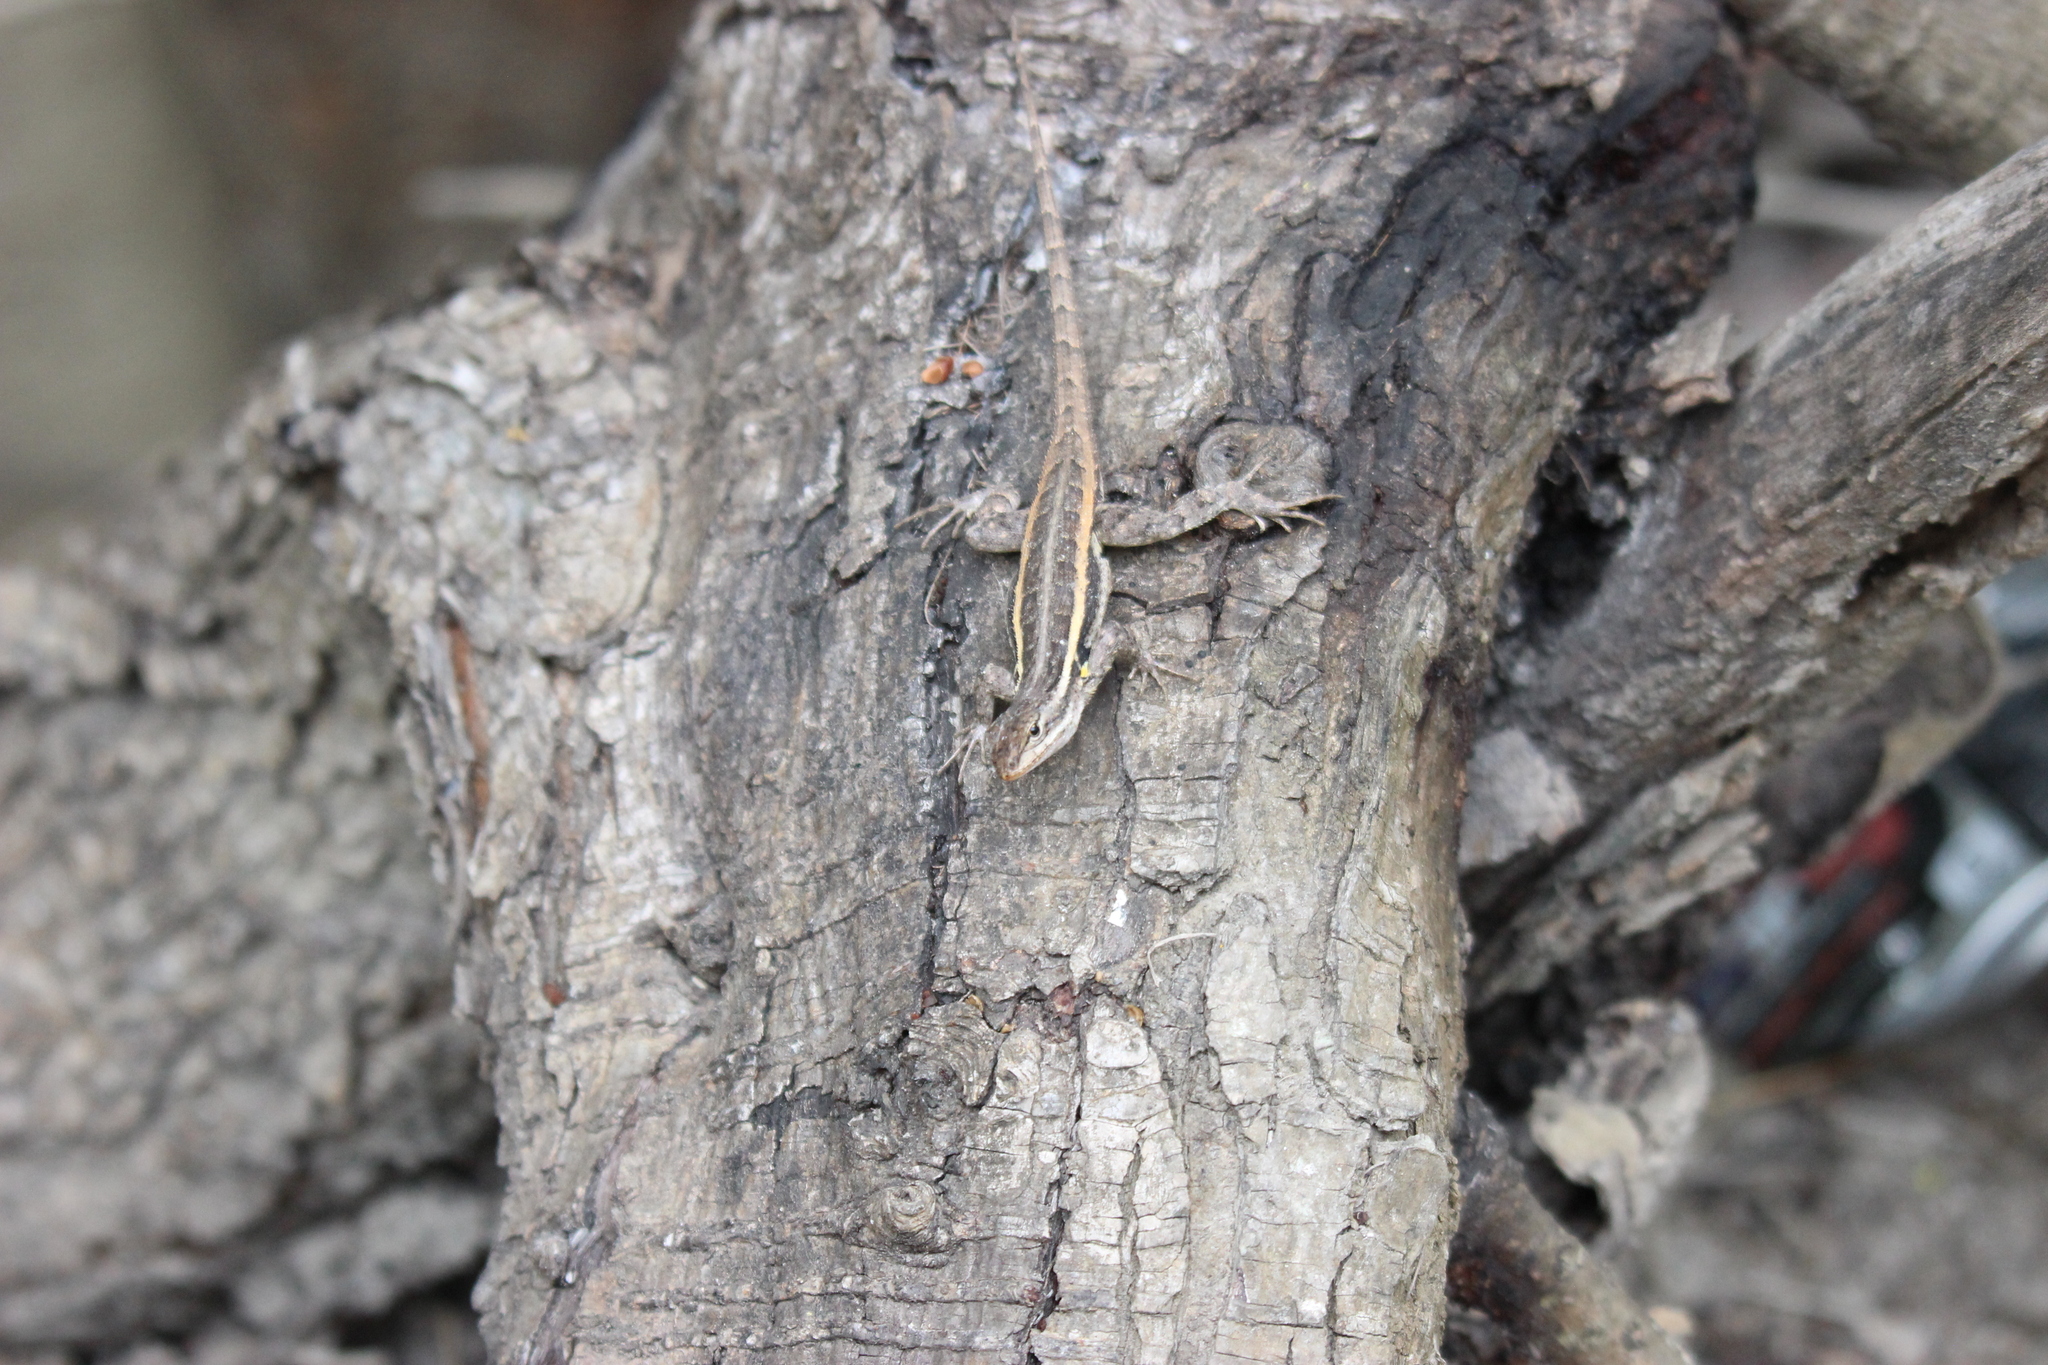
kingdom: Animalia
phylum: Chordata
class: Squamata
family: Phrynosomatidae
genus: Sceloporus
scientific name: Sceloporus variabilis
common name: Rosebelly lizard
